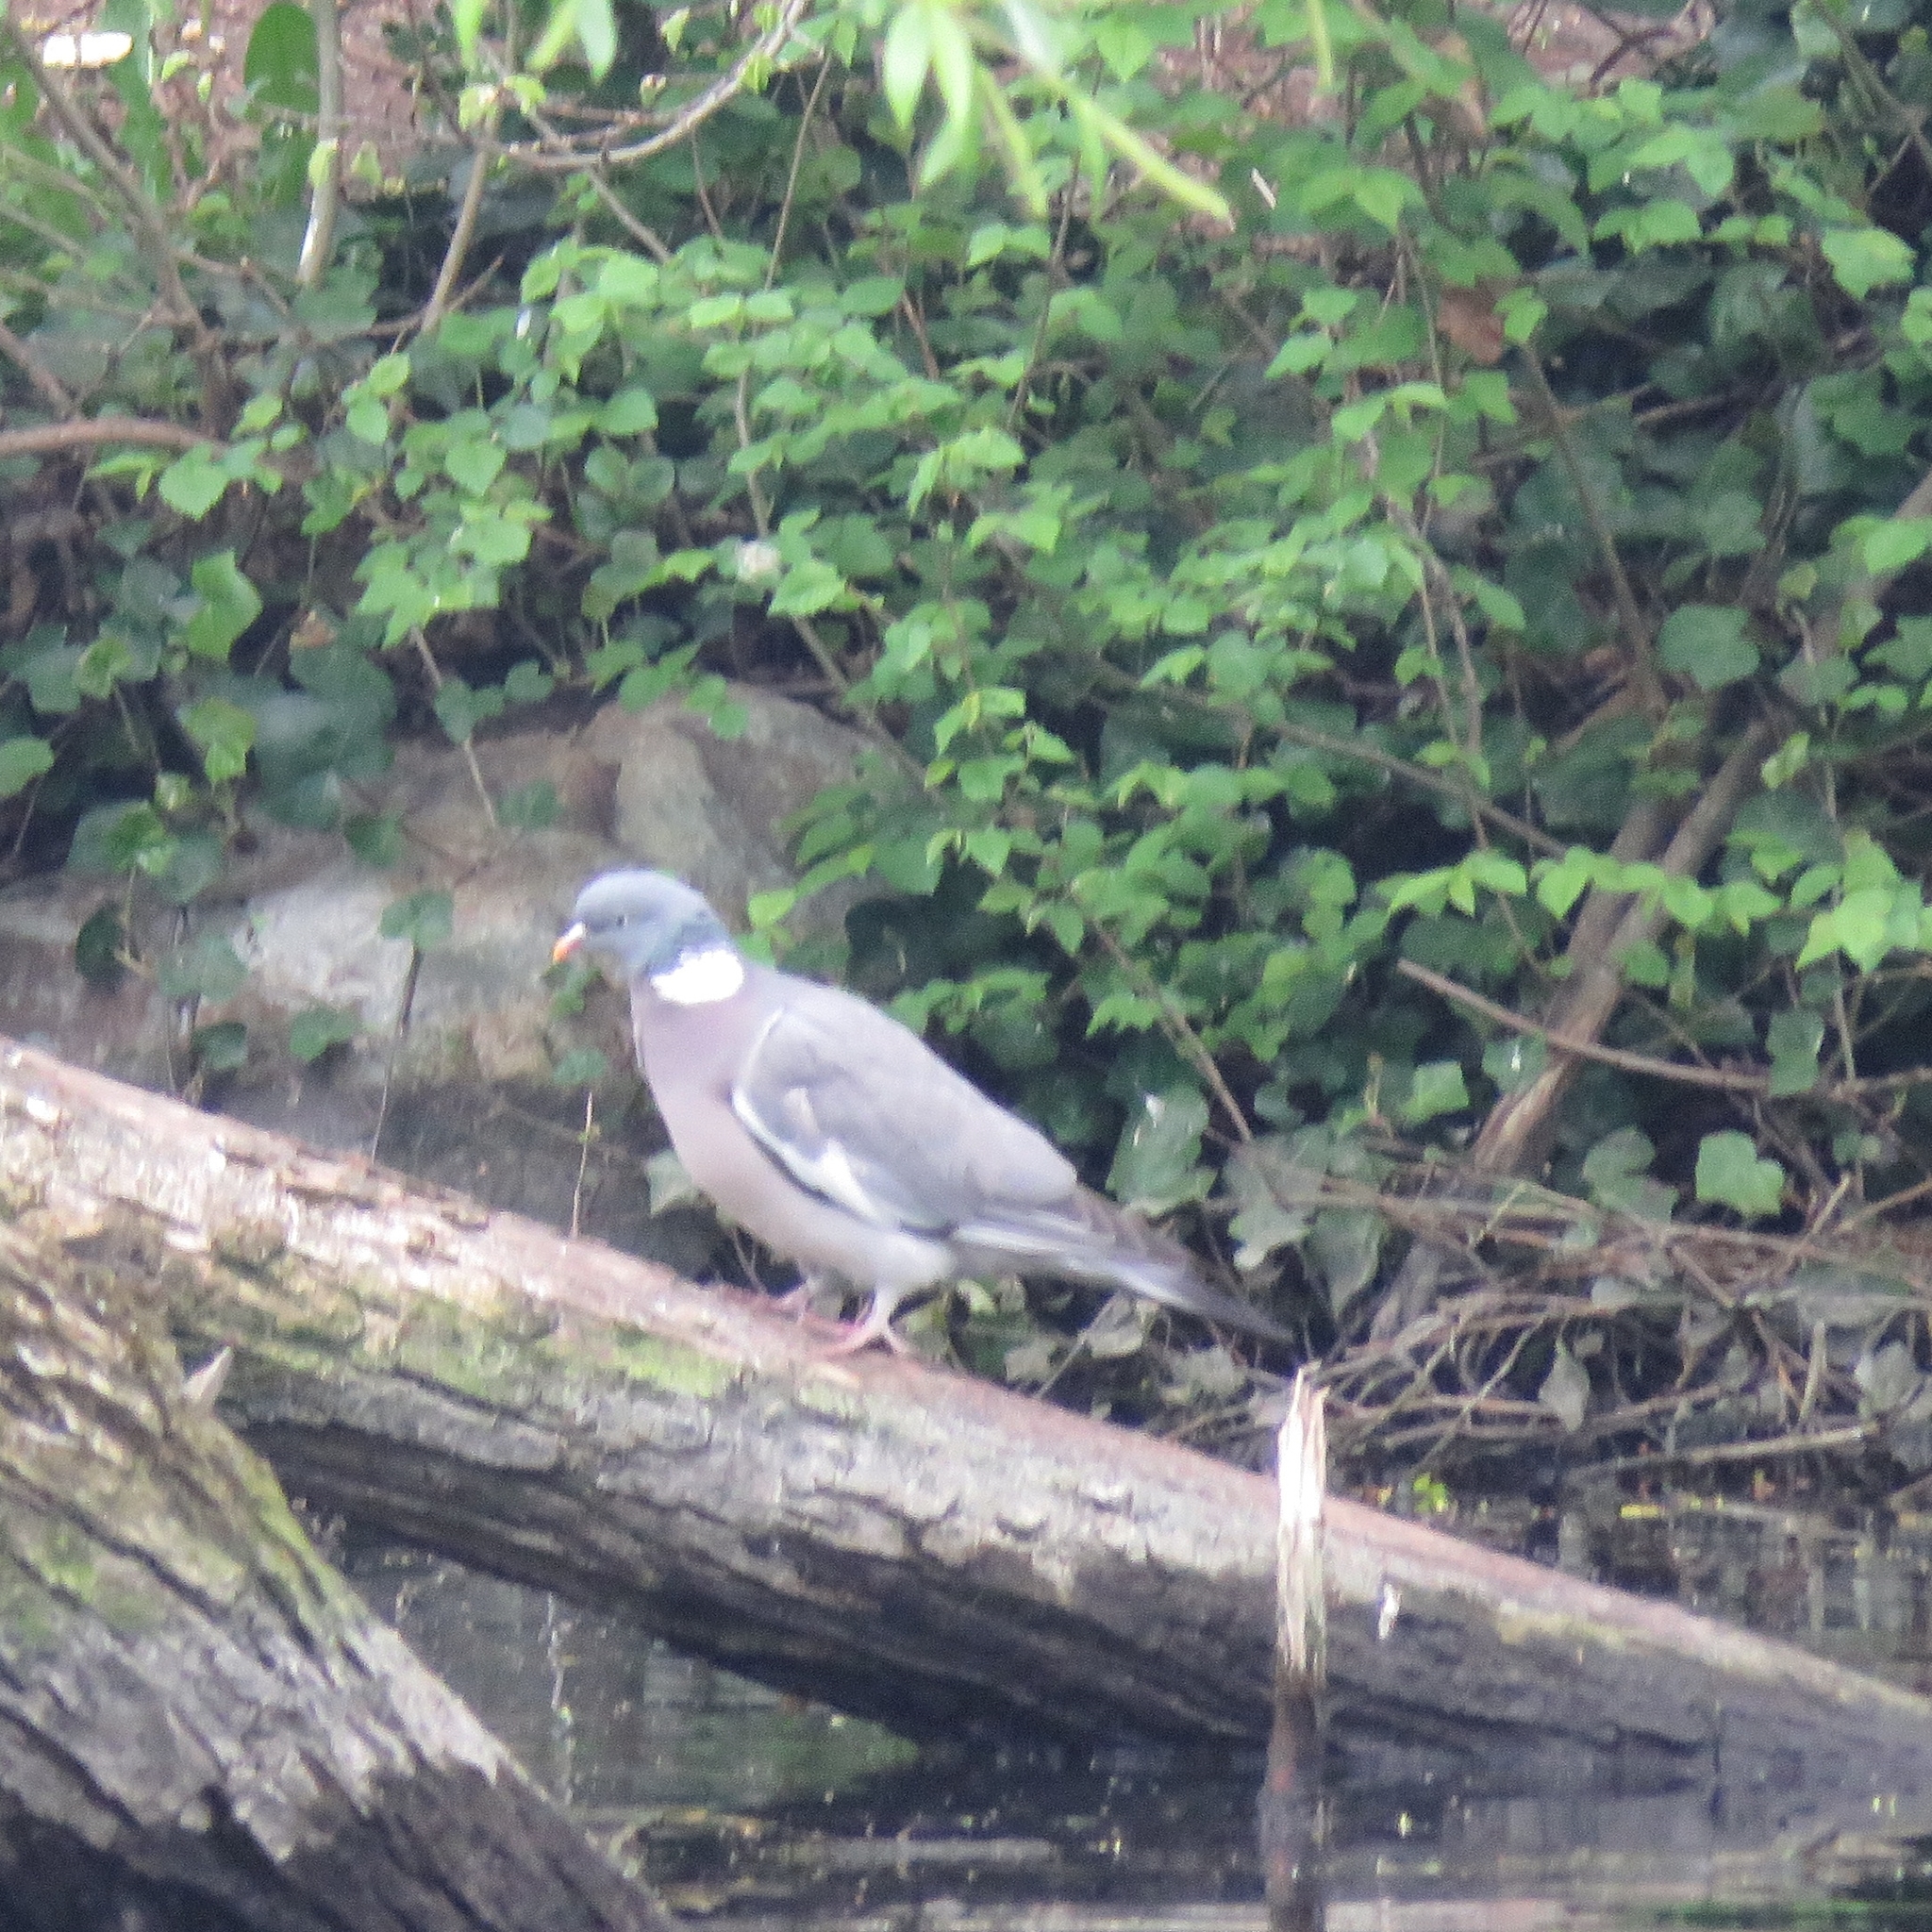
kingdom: Animalia
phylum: Chordata
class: Aves
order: Columbiformes
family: Columbidae
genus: Columba
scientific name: Columba palumbus
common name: Common wood pigeon
